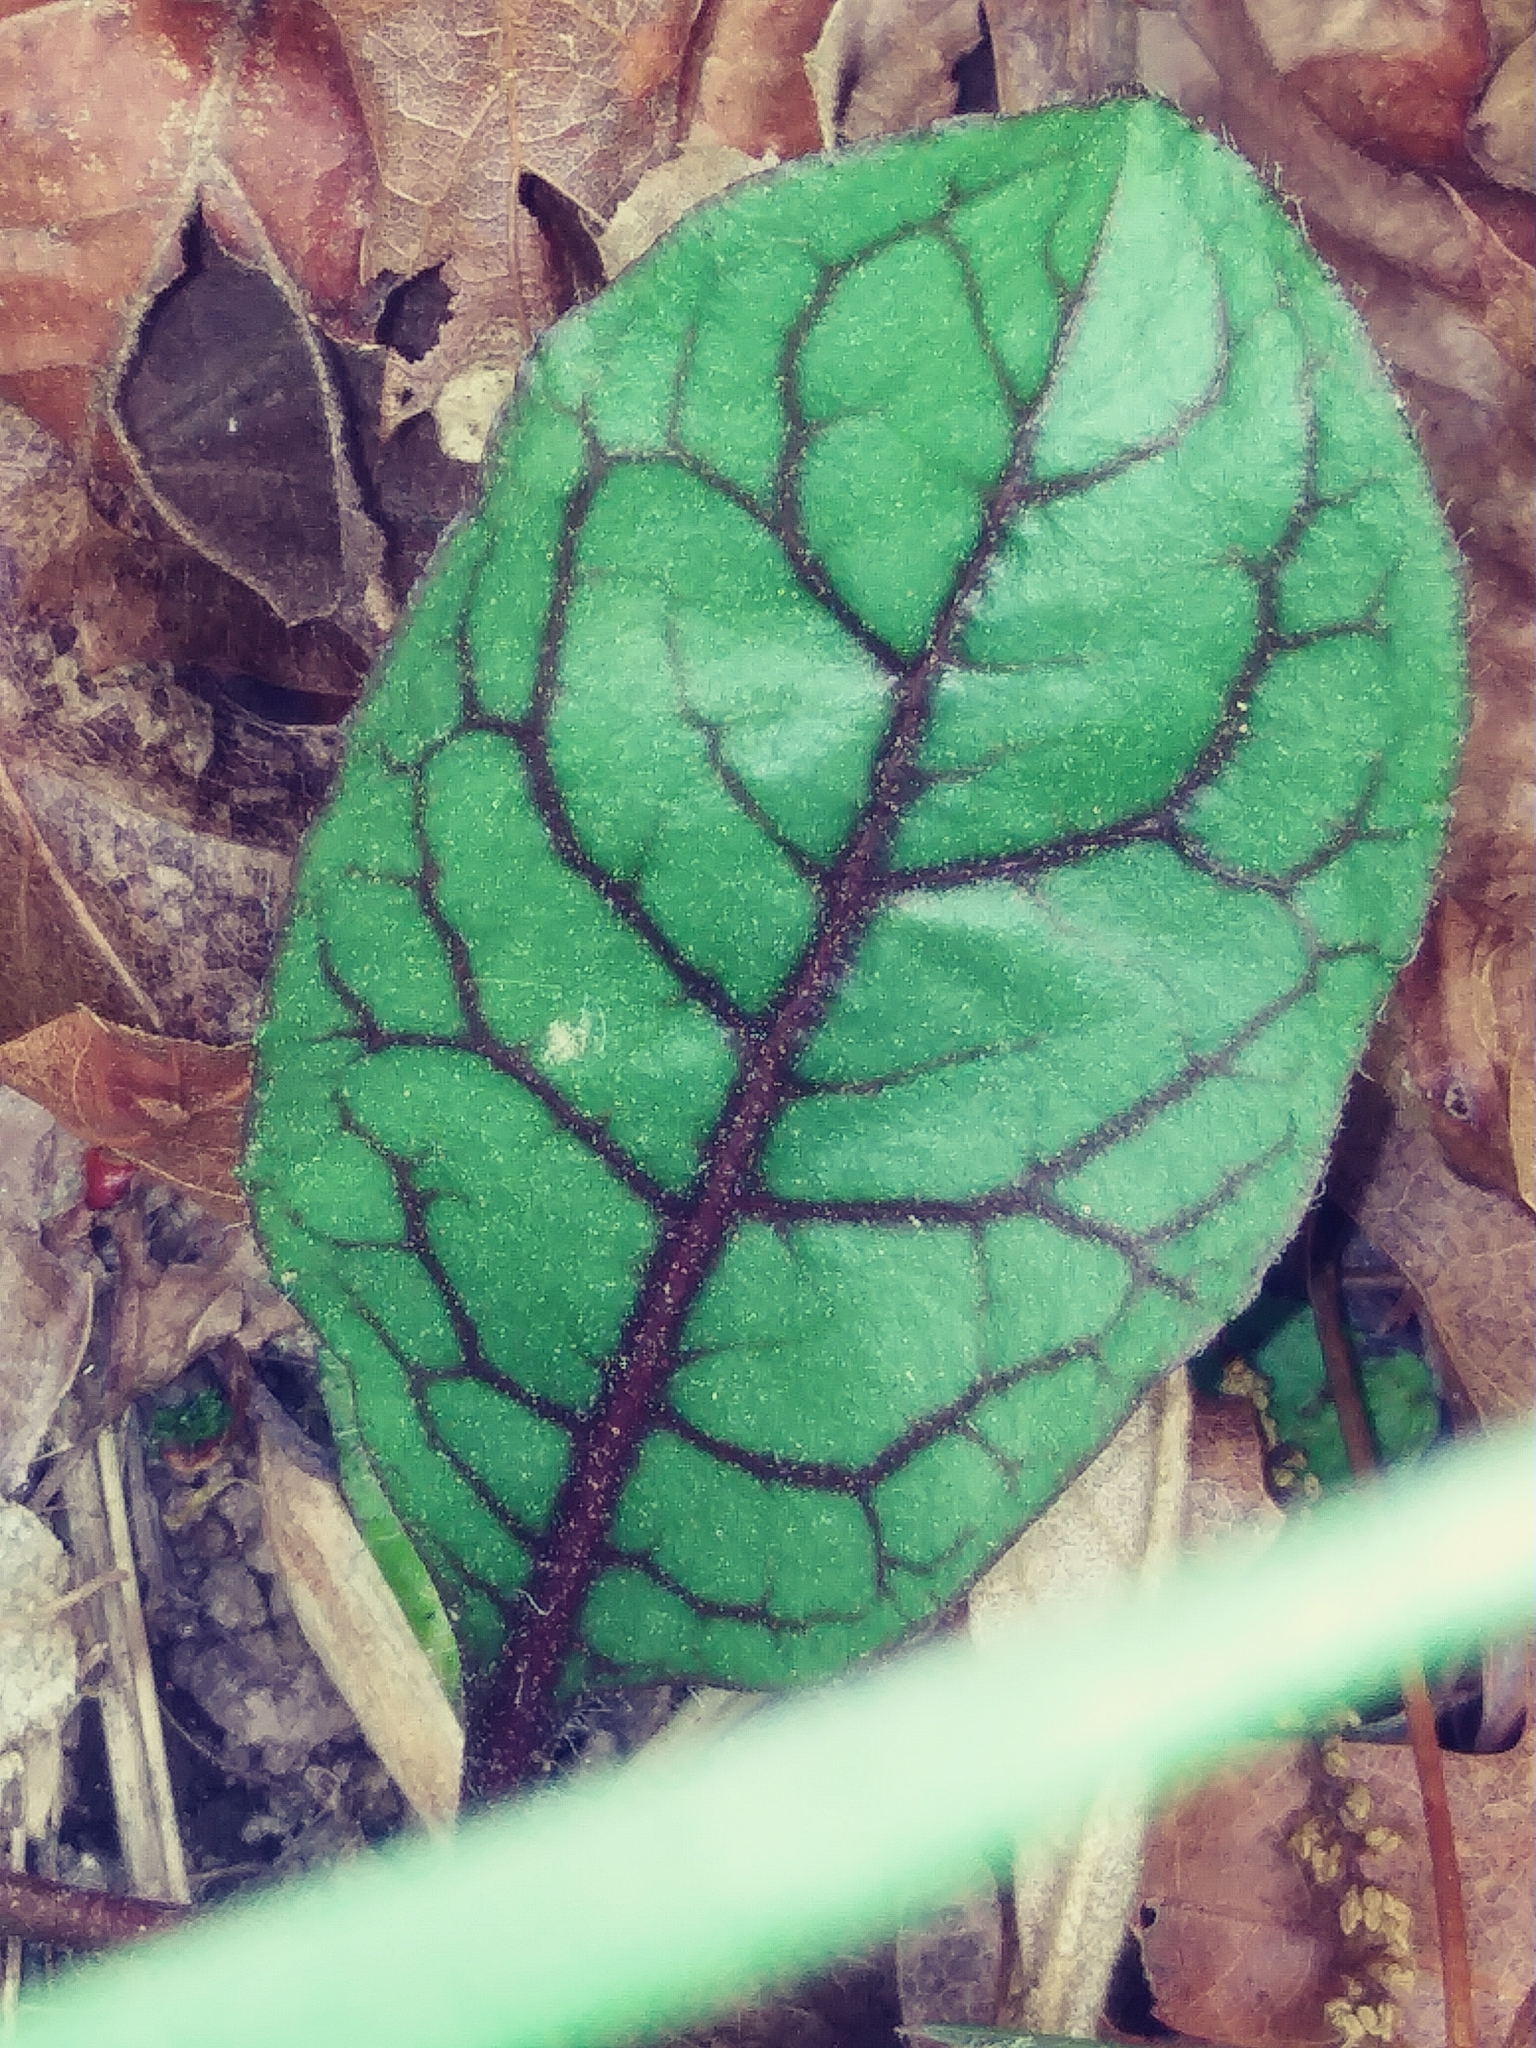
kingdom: Plantae
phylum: Tracheophyta
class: Magnoliopsida
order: Asterales
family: Asteraceae
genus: Hieracium
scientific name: Hieracium venosum
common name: Rattlesnake hawkweed
